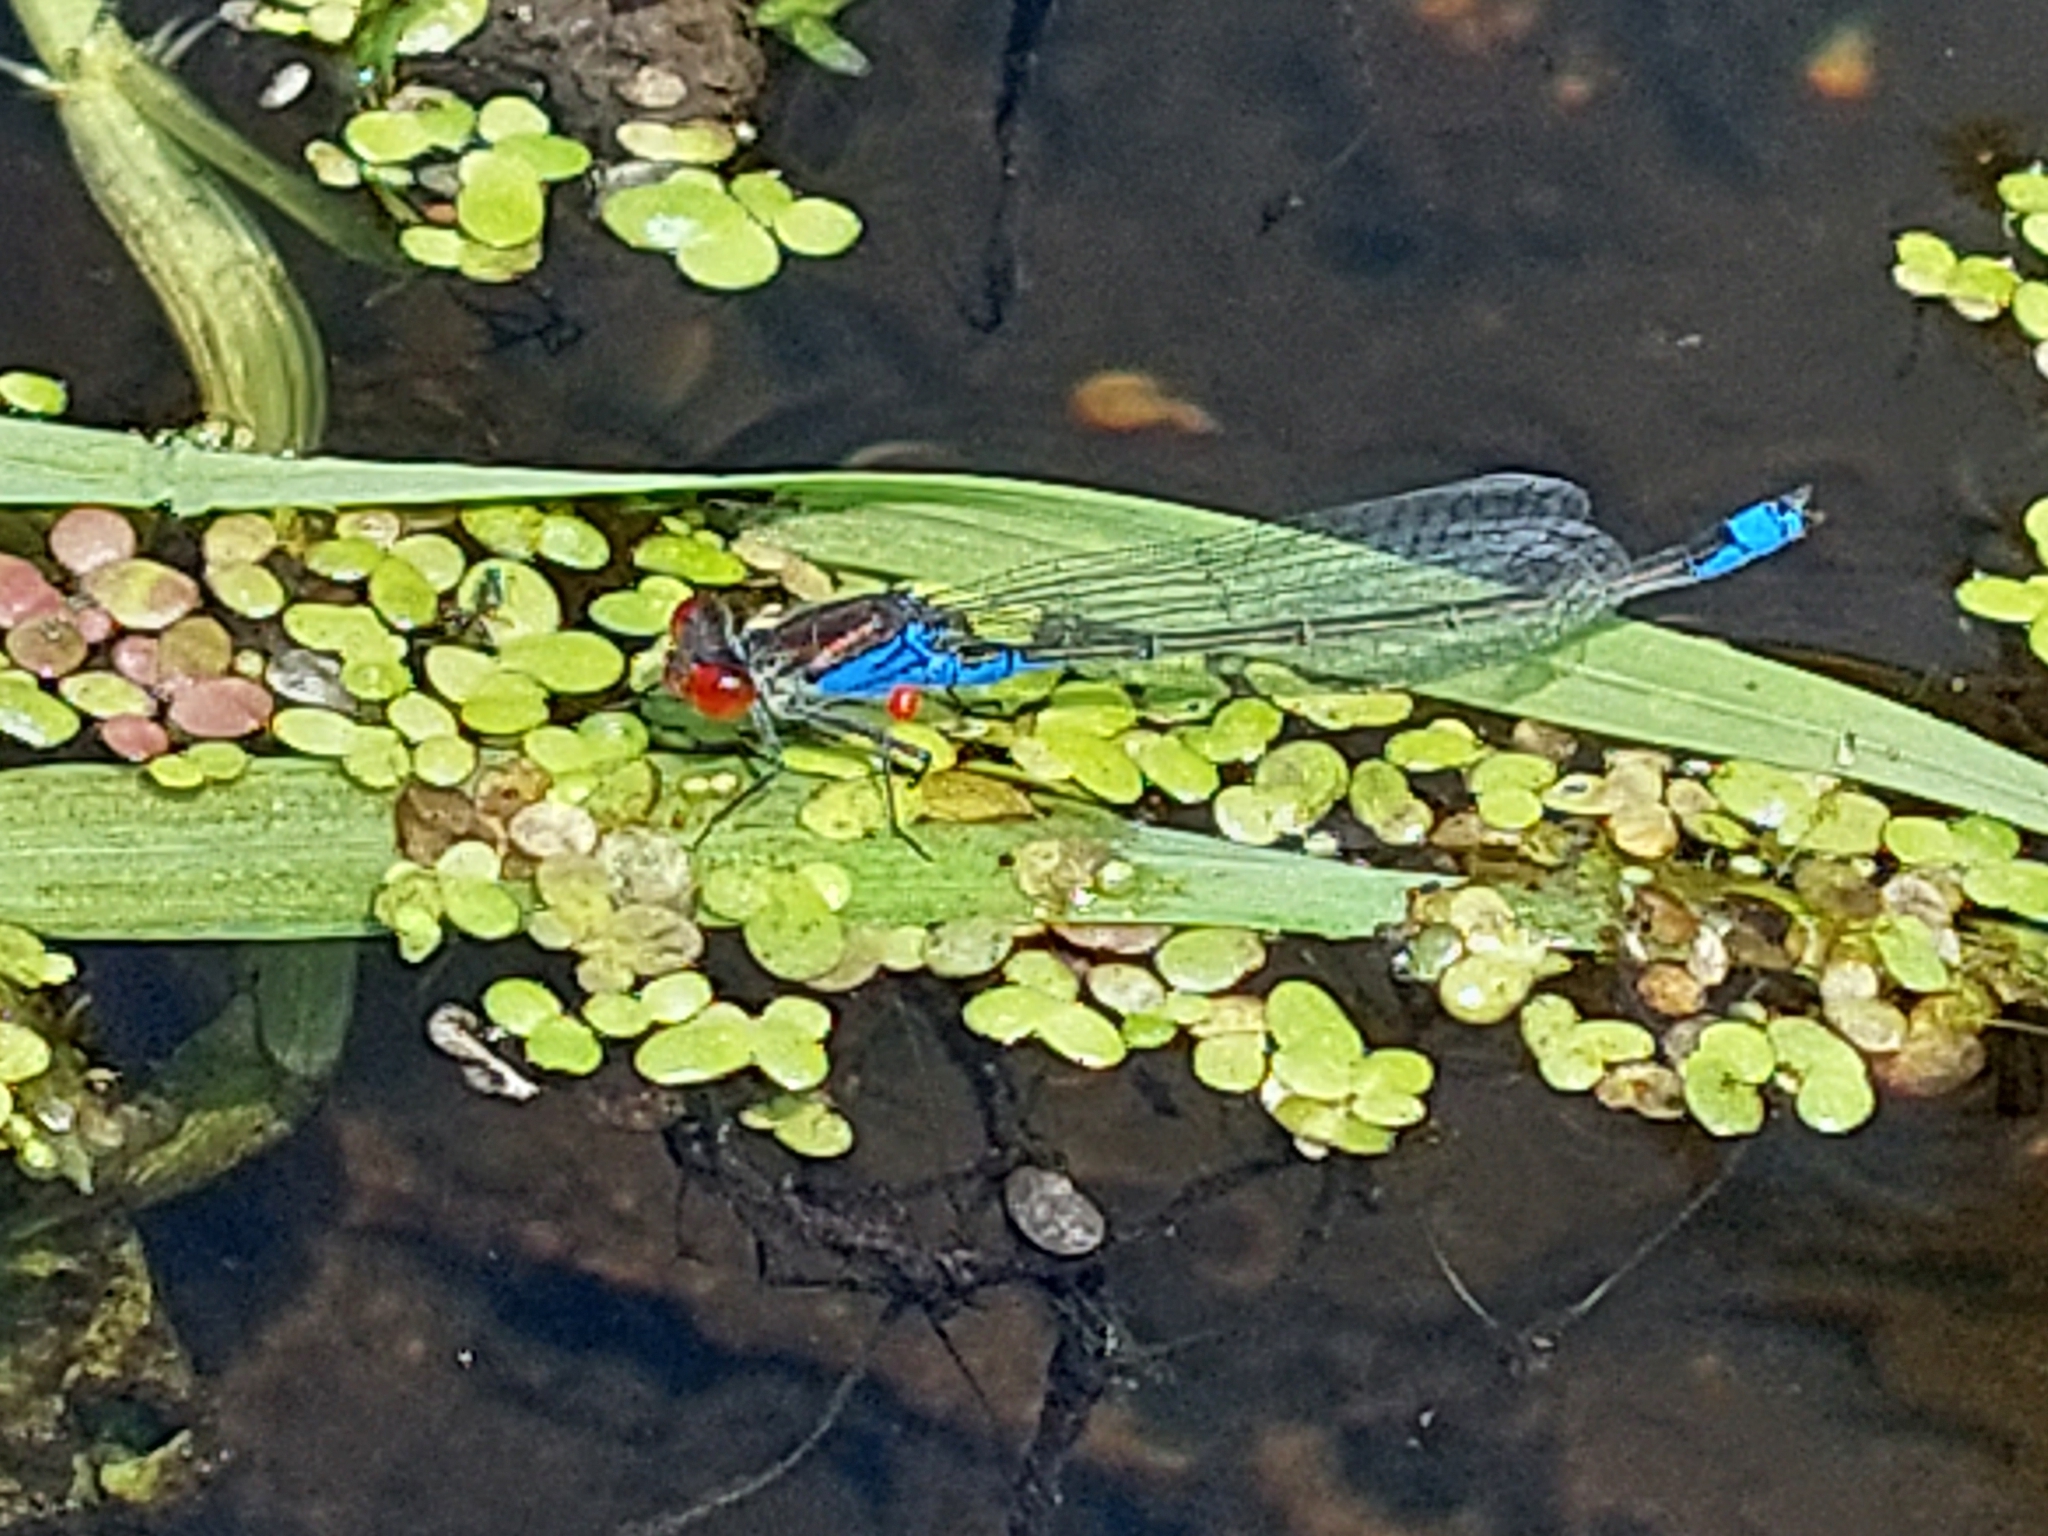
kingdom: Animalia
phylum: Arthropoda
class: Insecta
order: Odonata
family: Coenagrionidae
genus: Erythromma
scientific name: Erythromma viridulum
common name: Small red-eyed damselfly
